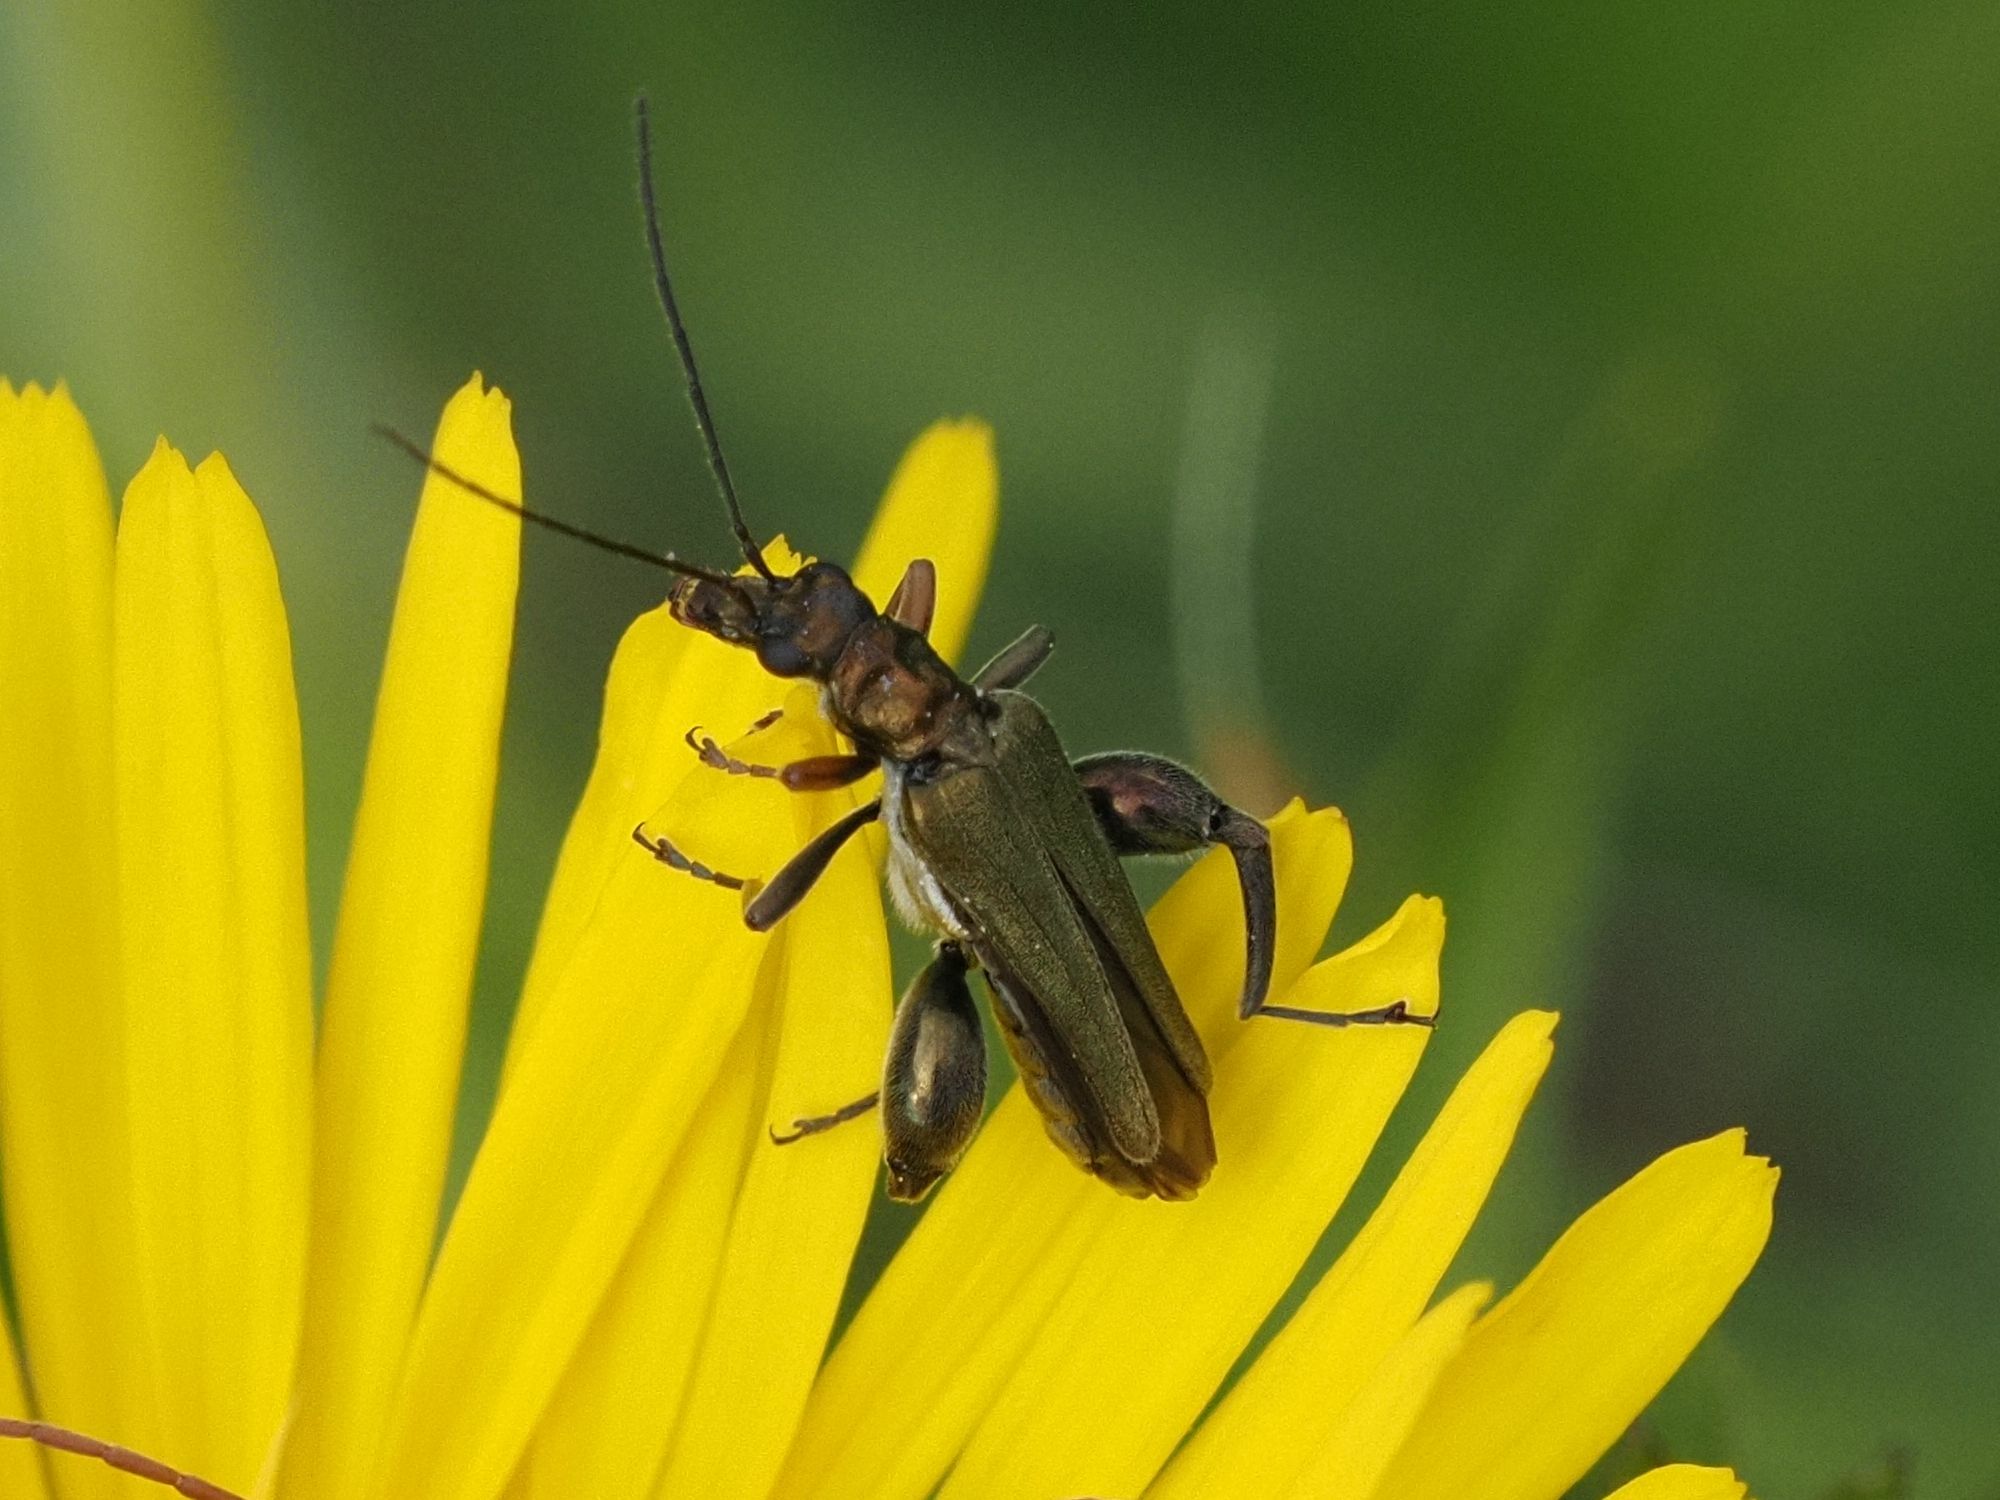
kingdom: Animalia
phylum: Arthropoda
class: Insecta
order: Coleoptera
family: Oedemeridae
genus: Oedemera
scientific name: Oedemera flavipes
